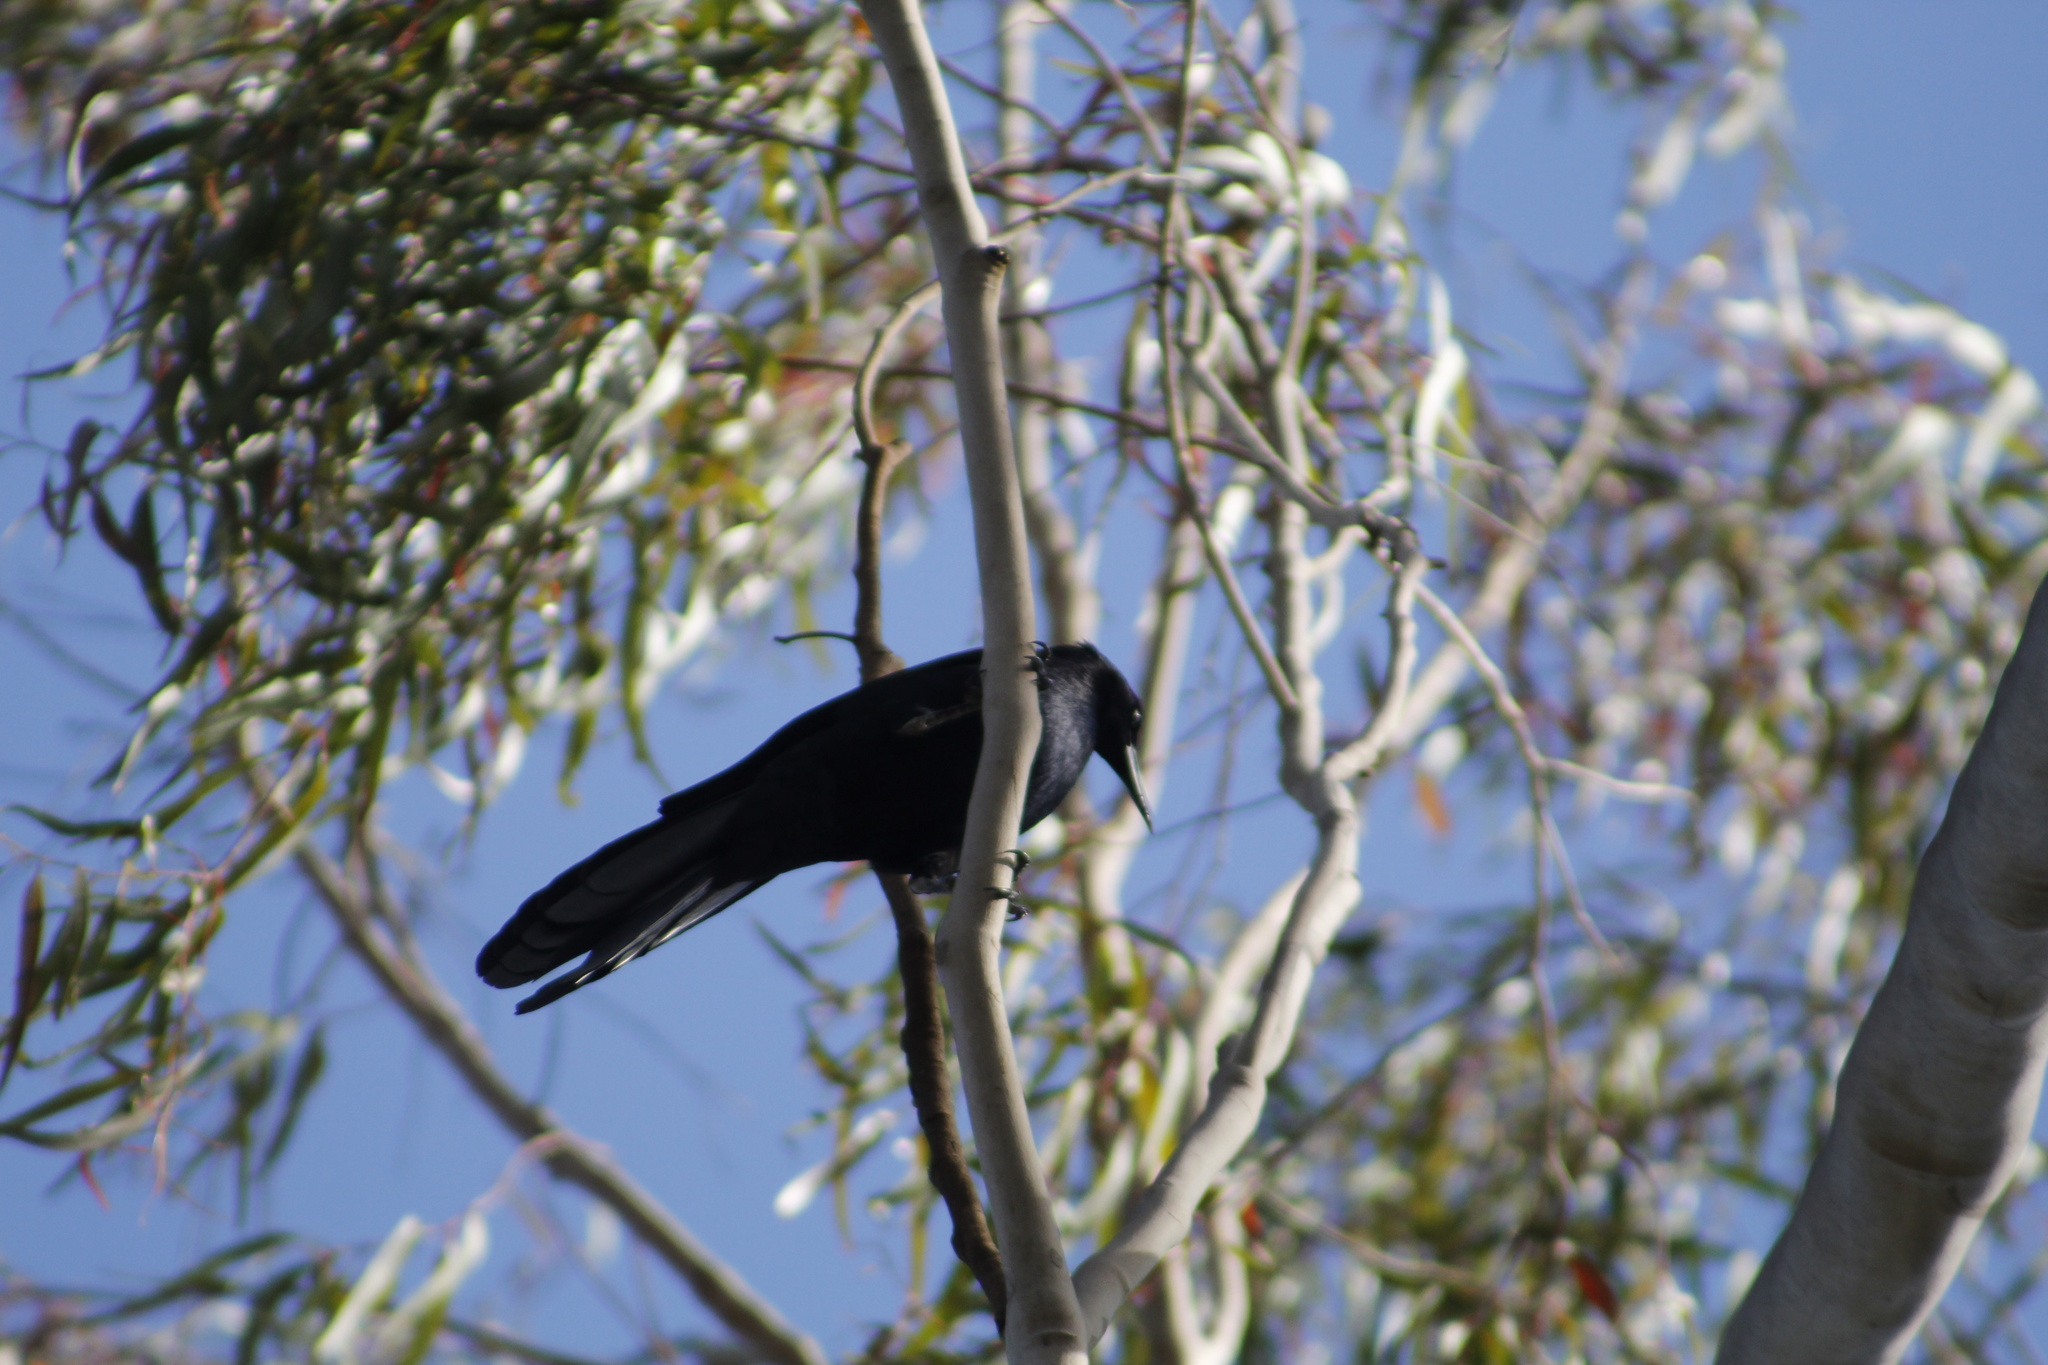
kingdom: Animalia
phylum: Chordata
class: Aves
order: Passeriformes
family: Icteridae
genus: Quiscalus
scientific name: Quiscalus mexicanus
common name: Great-tailed grackle
